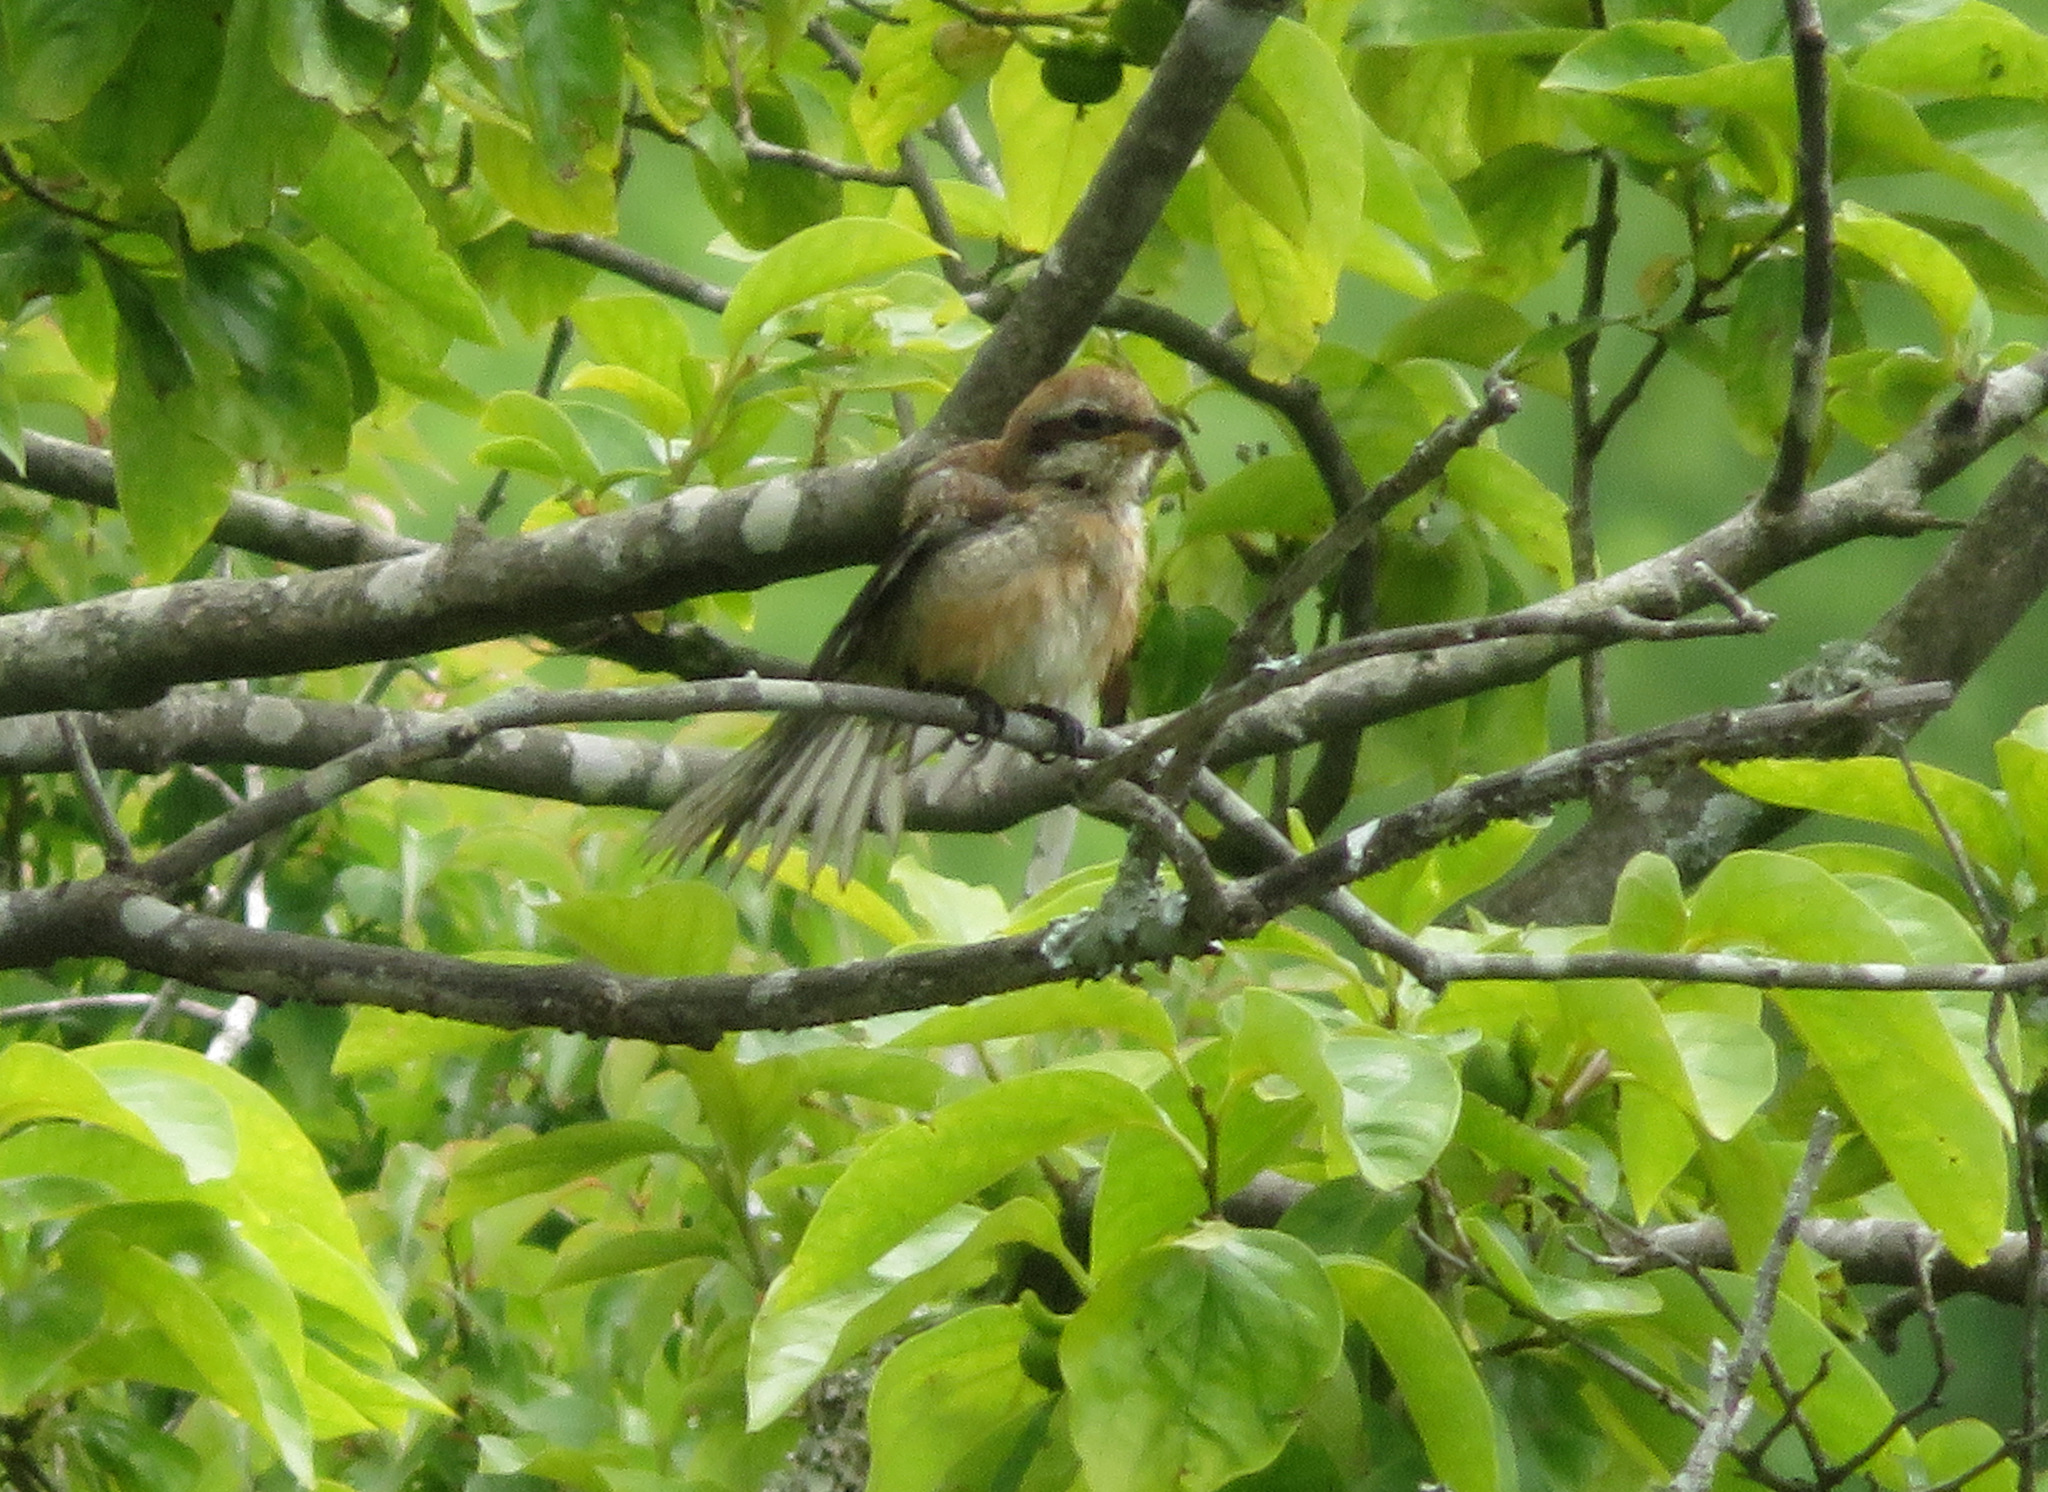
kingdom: Animalia
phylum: Chordata
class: Aves
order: Passeriformes
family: Laniidae
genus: Lanius
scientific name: Lanius bucephalus
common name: Bull-headed shrike
